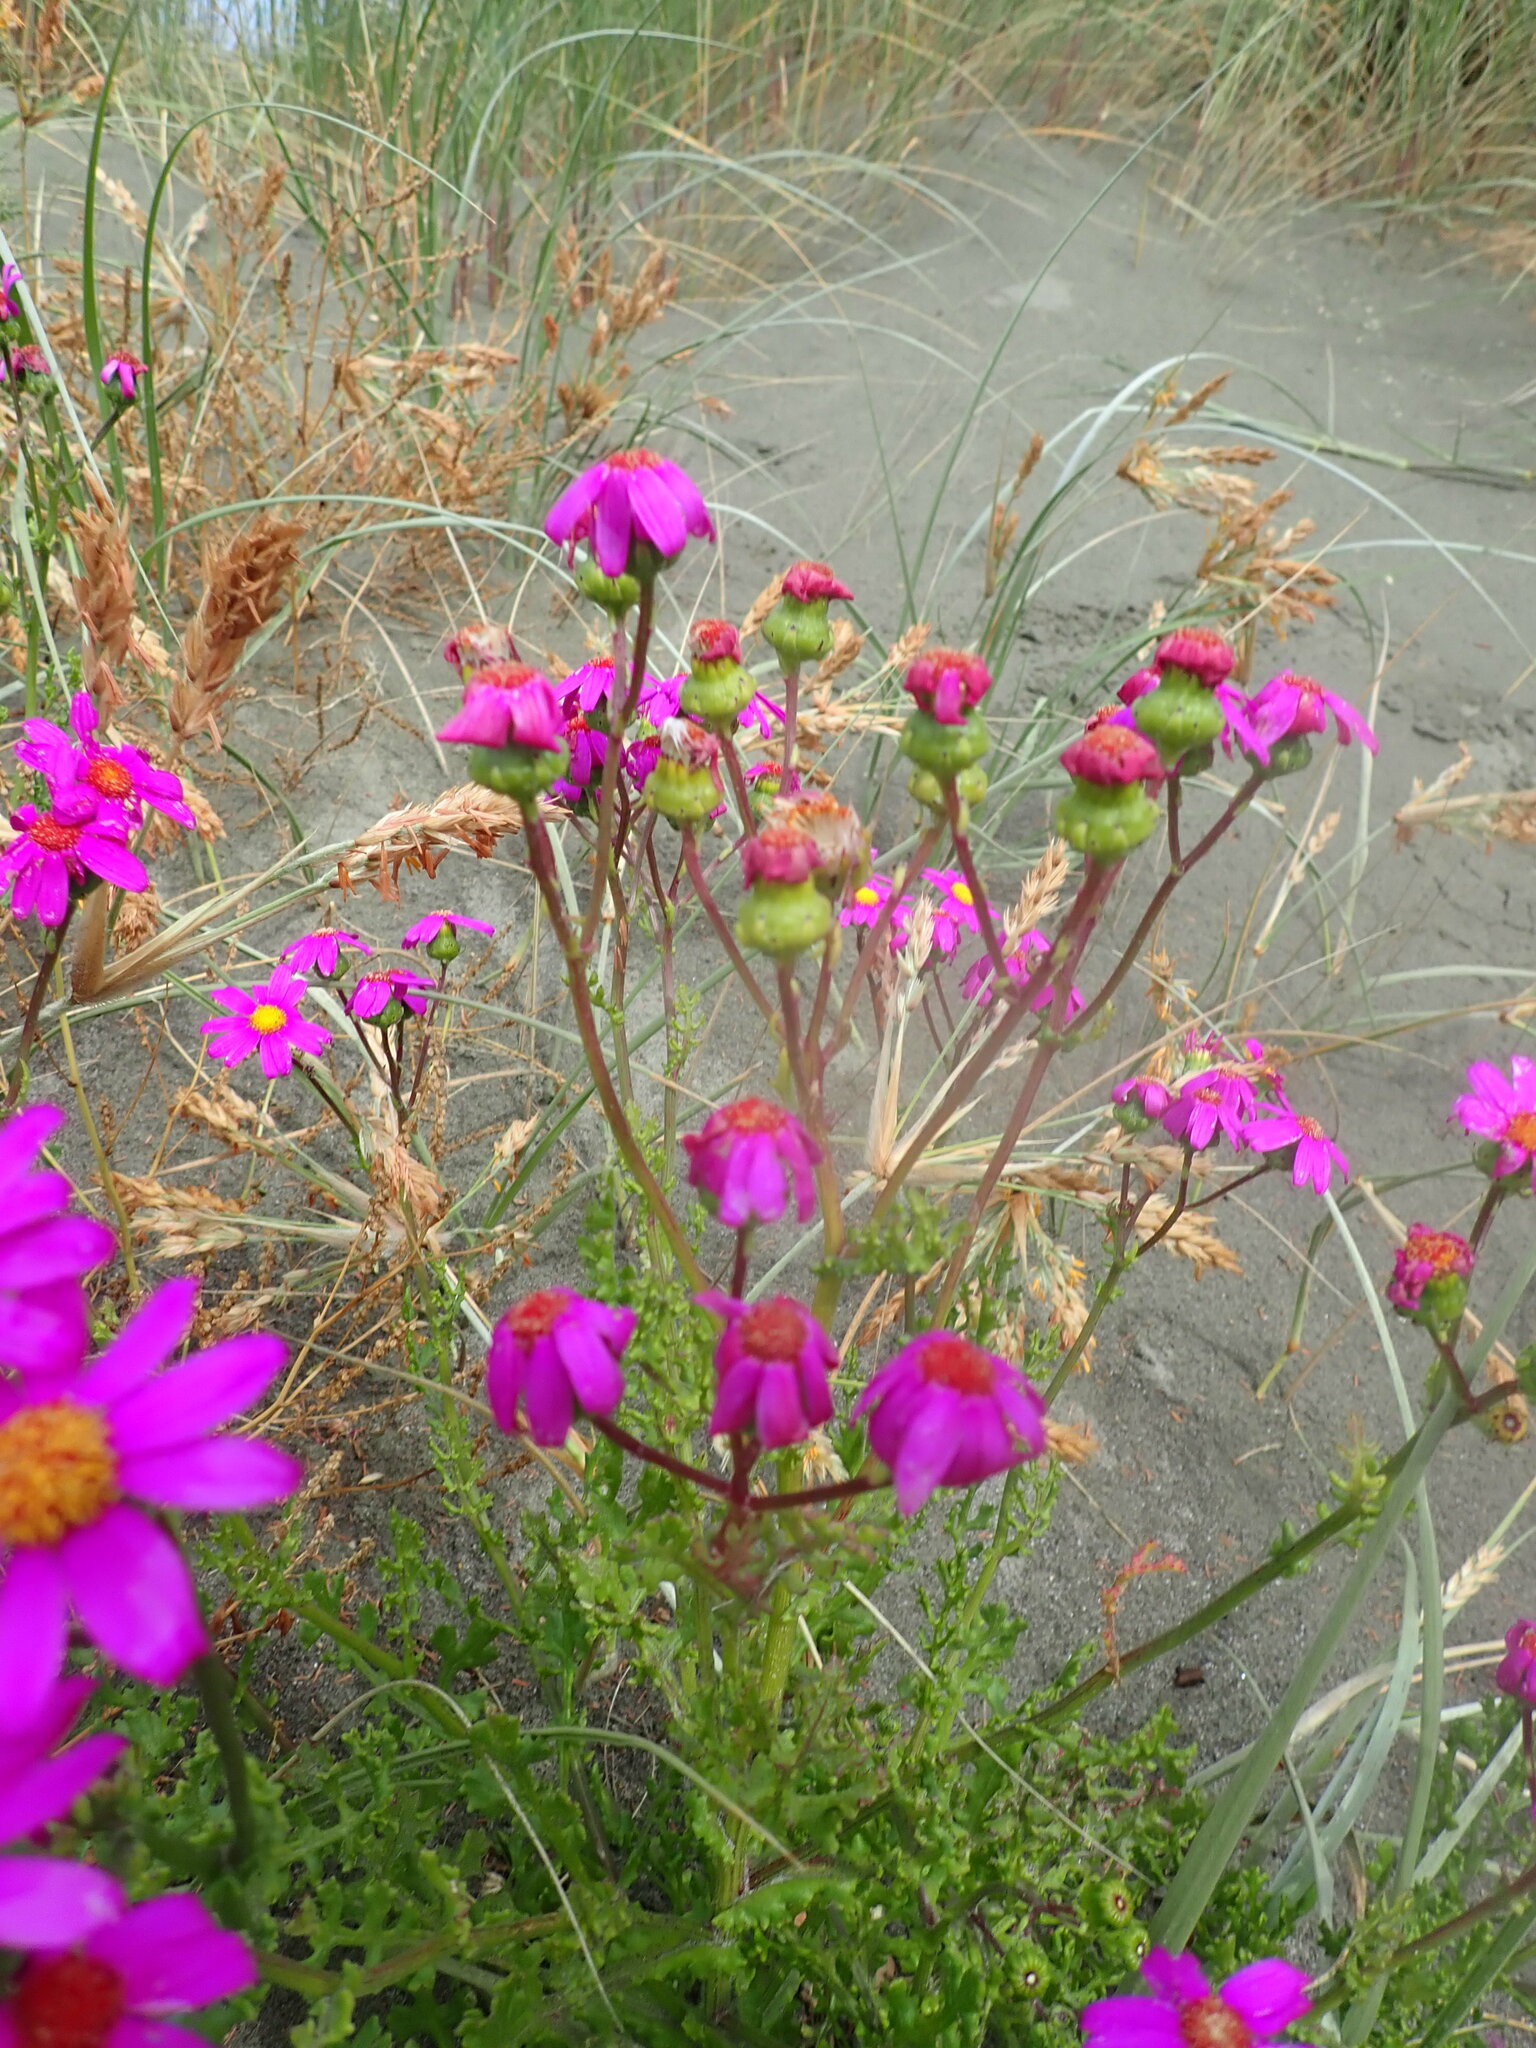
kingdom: Plantae
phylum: Tracheophyta
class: Magnoliopsida
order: Asterales
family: Asteraceae
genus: Senecio
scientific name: Senecio elegans
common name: Purple groundsel
